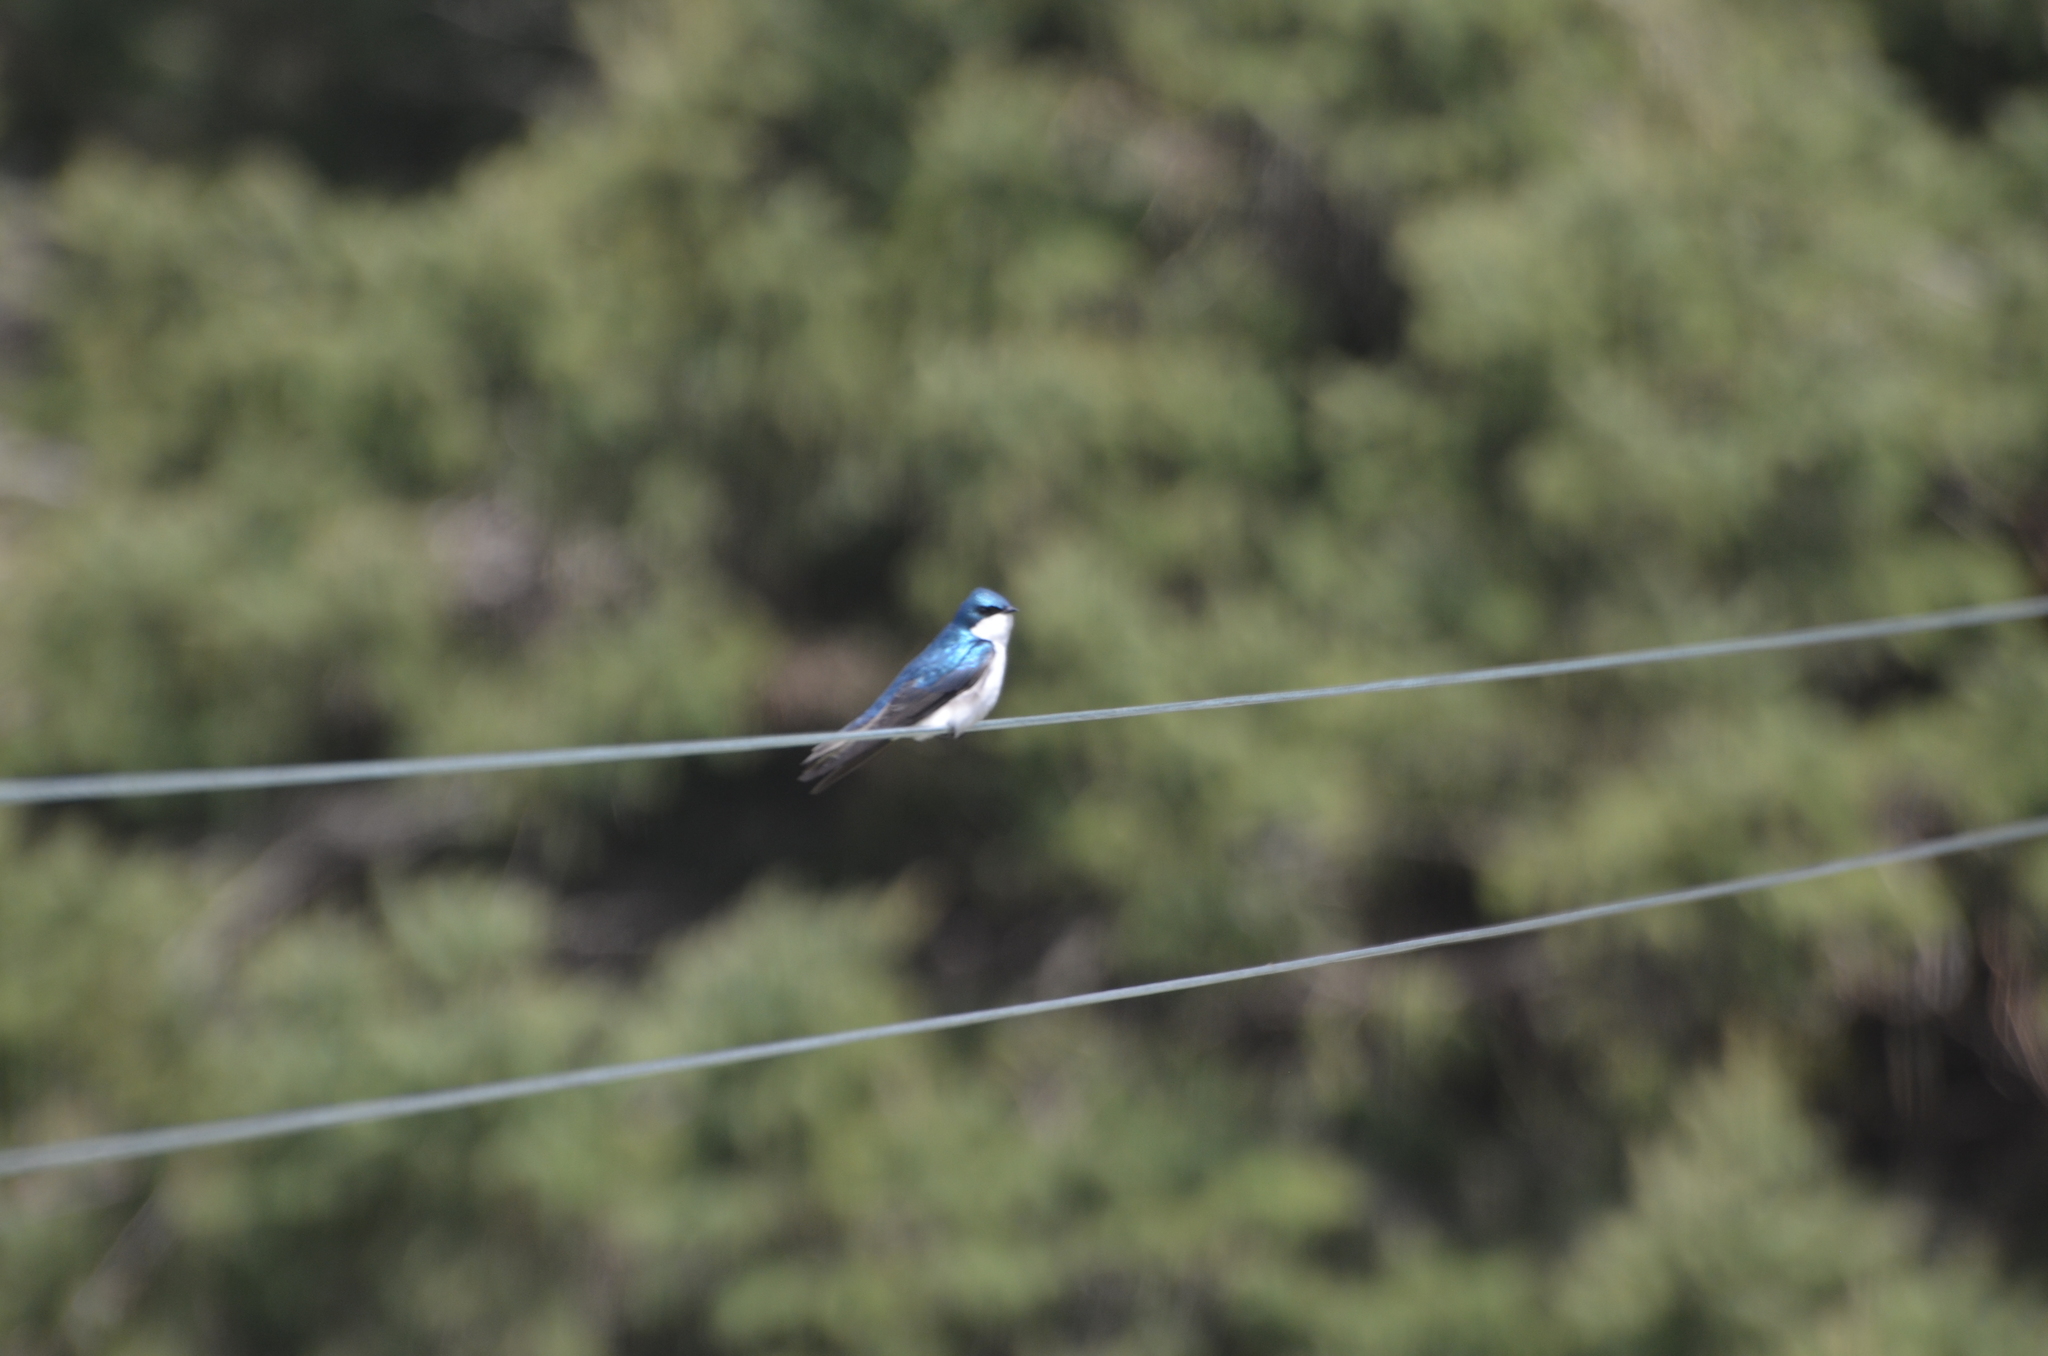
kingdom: Animalia
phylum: Chordata
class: Aves
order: Passeriformes
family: Hirundinidae
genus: Tachycineta
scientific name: Tachycineta bicolor
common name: Tree swallow
